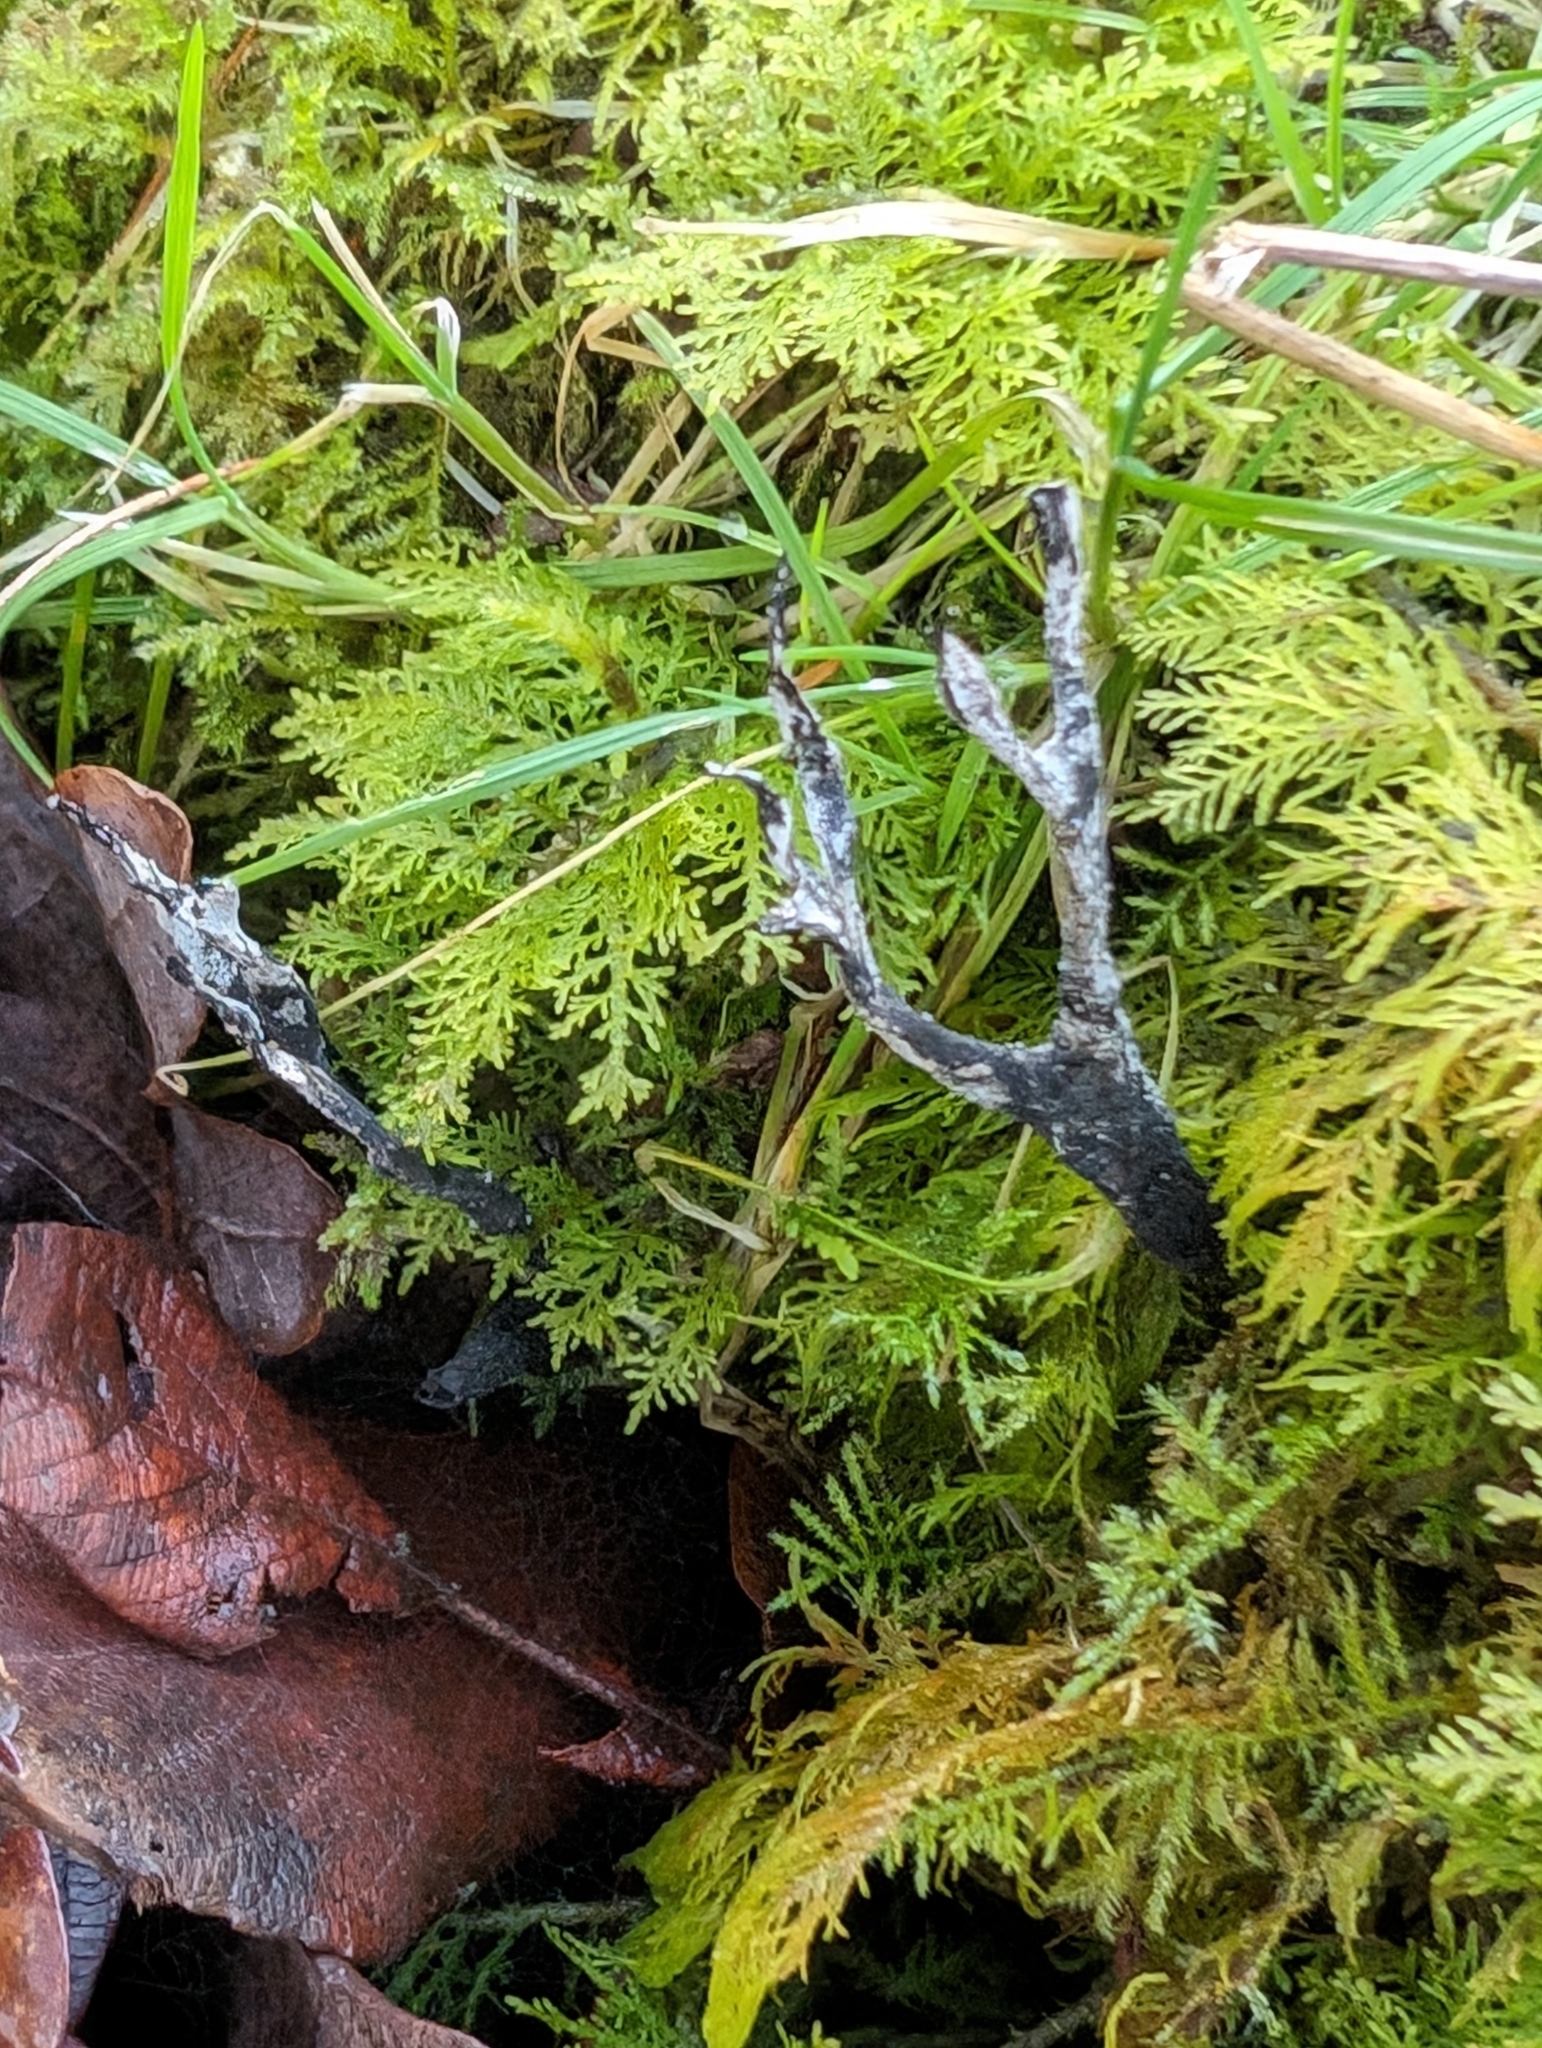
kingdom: Fungi
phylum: Ascomycota
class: Sordariomycetes
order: Xylariales
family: Xylariaceae
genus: Xylaria
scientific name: Xylaria hypoxylon
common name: Candle-snuff fungus
